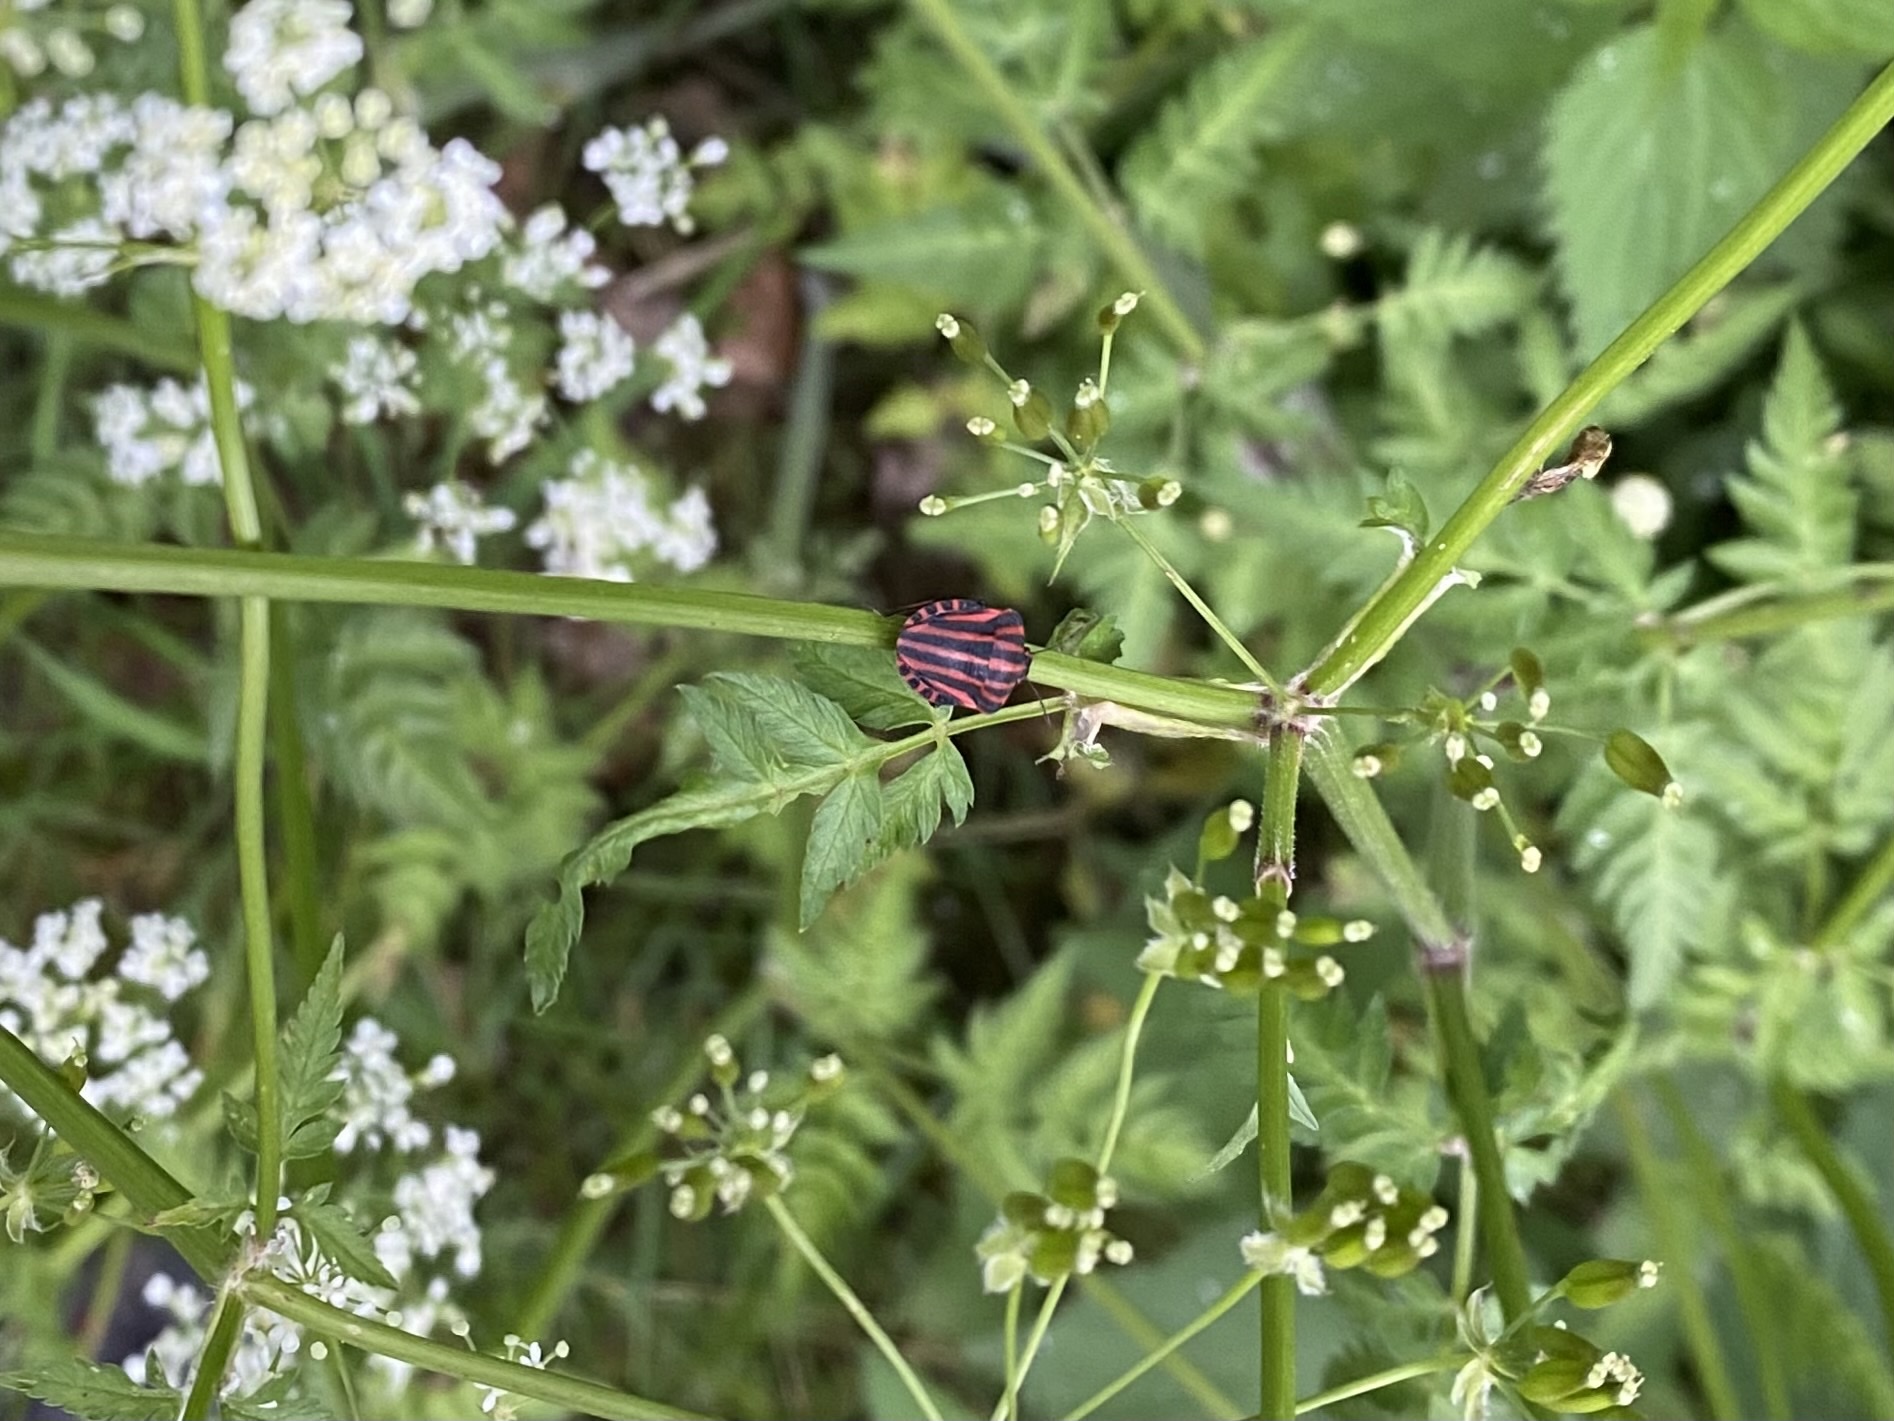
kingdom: Animalia
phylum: Arthropoda
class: Insecta
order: Hemiptera
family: Pentatomidae
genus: Graphosoma
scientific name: Graphosoma italicum
